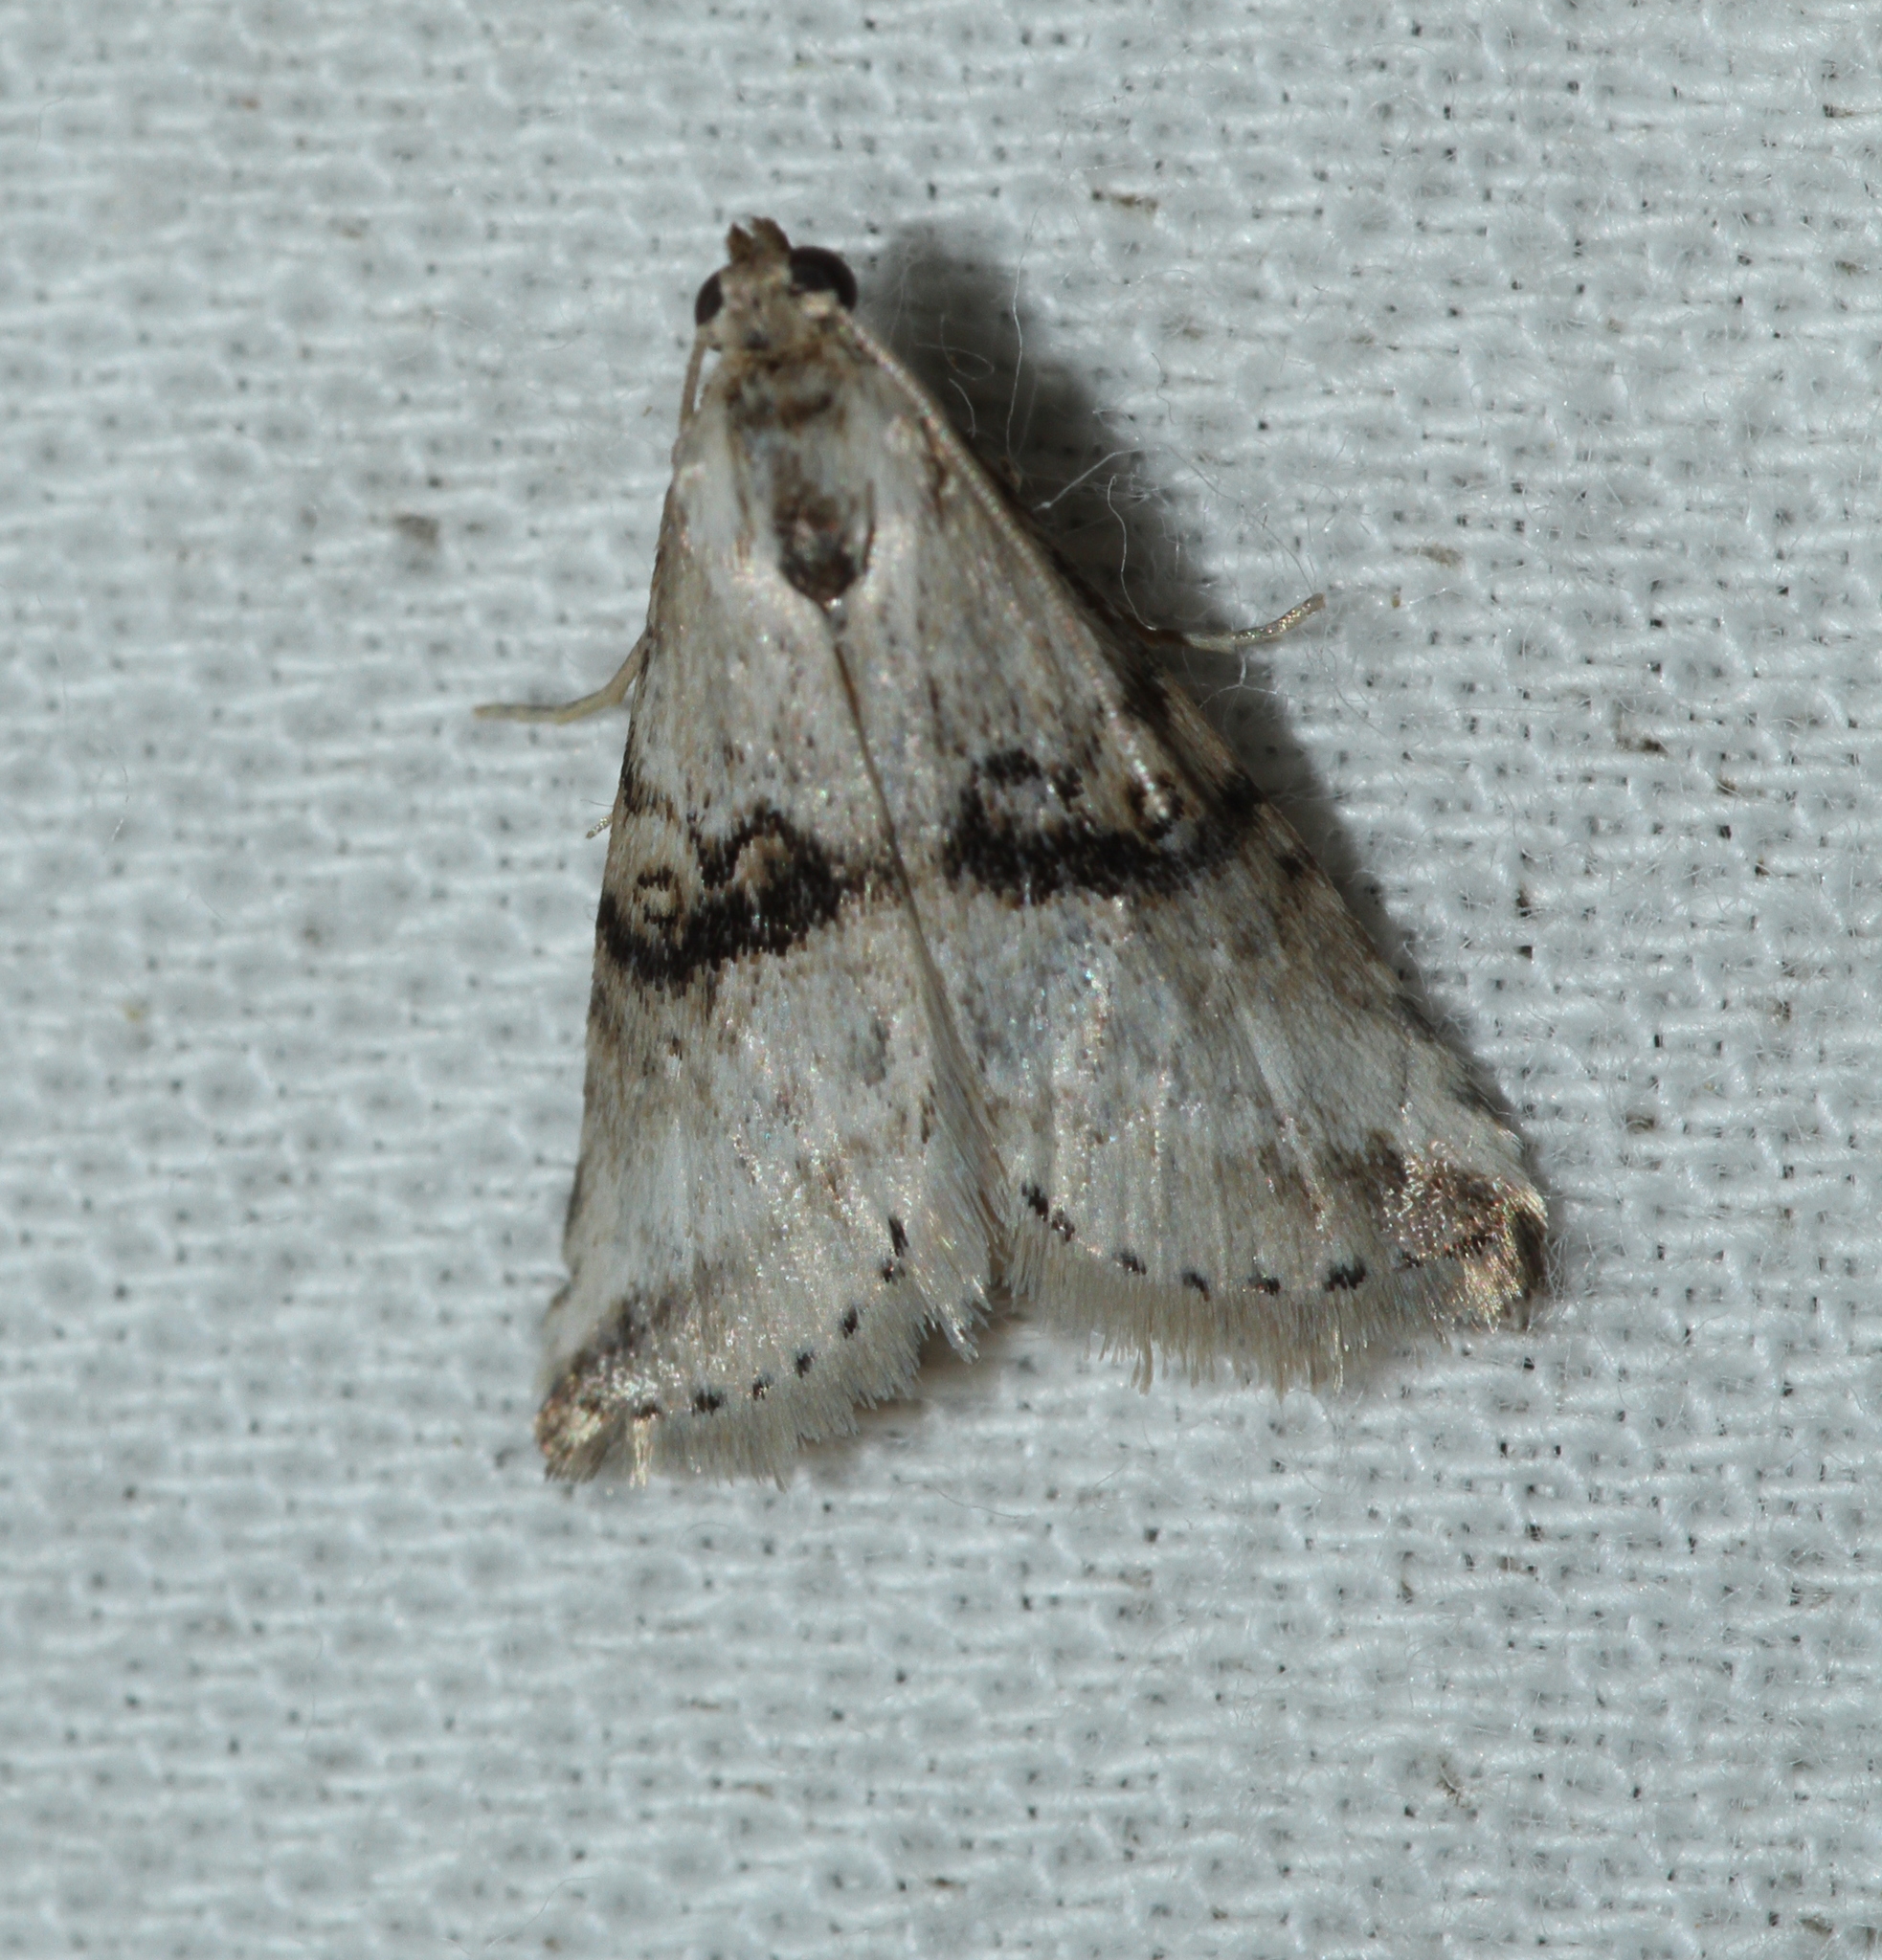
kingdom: Animalia
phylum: Arthropoda
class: Insecta
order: Lepidoptera
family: Erebidae
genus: Zebeeba
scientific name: Zebeeba falsalis
